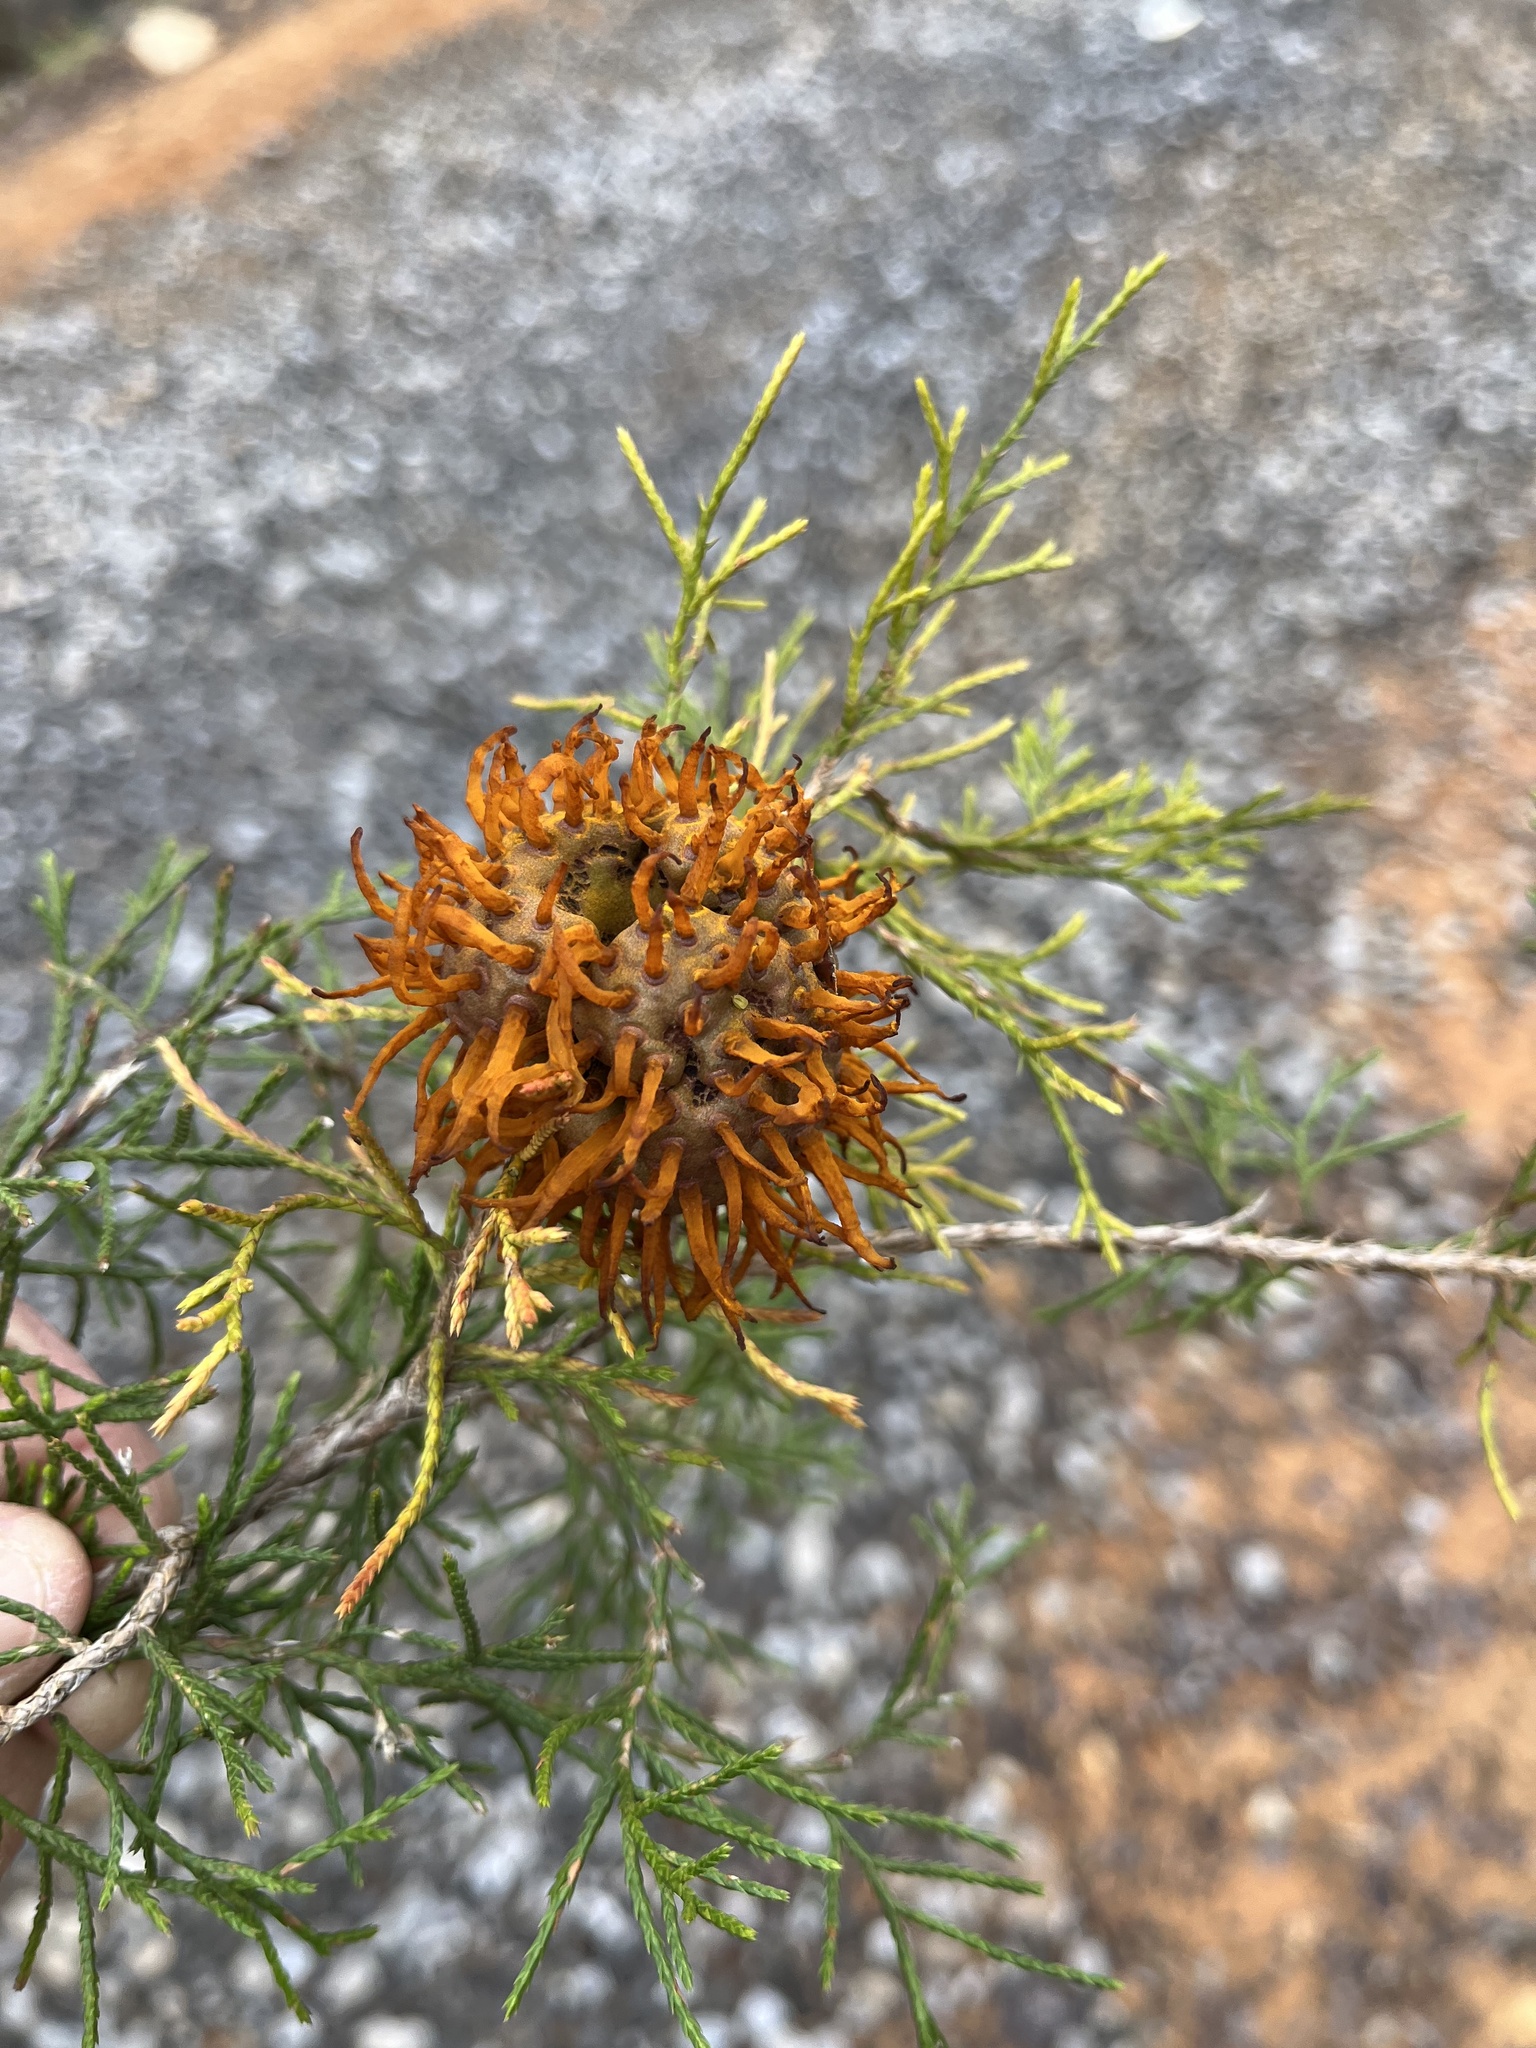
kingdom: Fungi
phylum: Basidiomycota
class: Pucciniomycetes
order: Pucciniales
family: Gymnosporangiaceae
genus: Gymnosporangium
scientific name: Gymnosporangium juniperi-virginianae
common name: Juniper-apple rust
